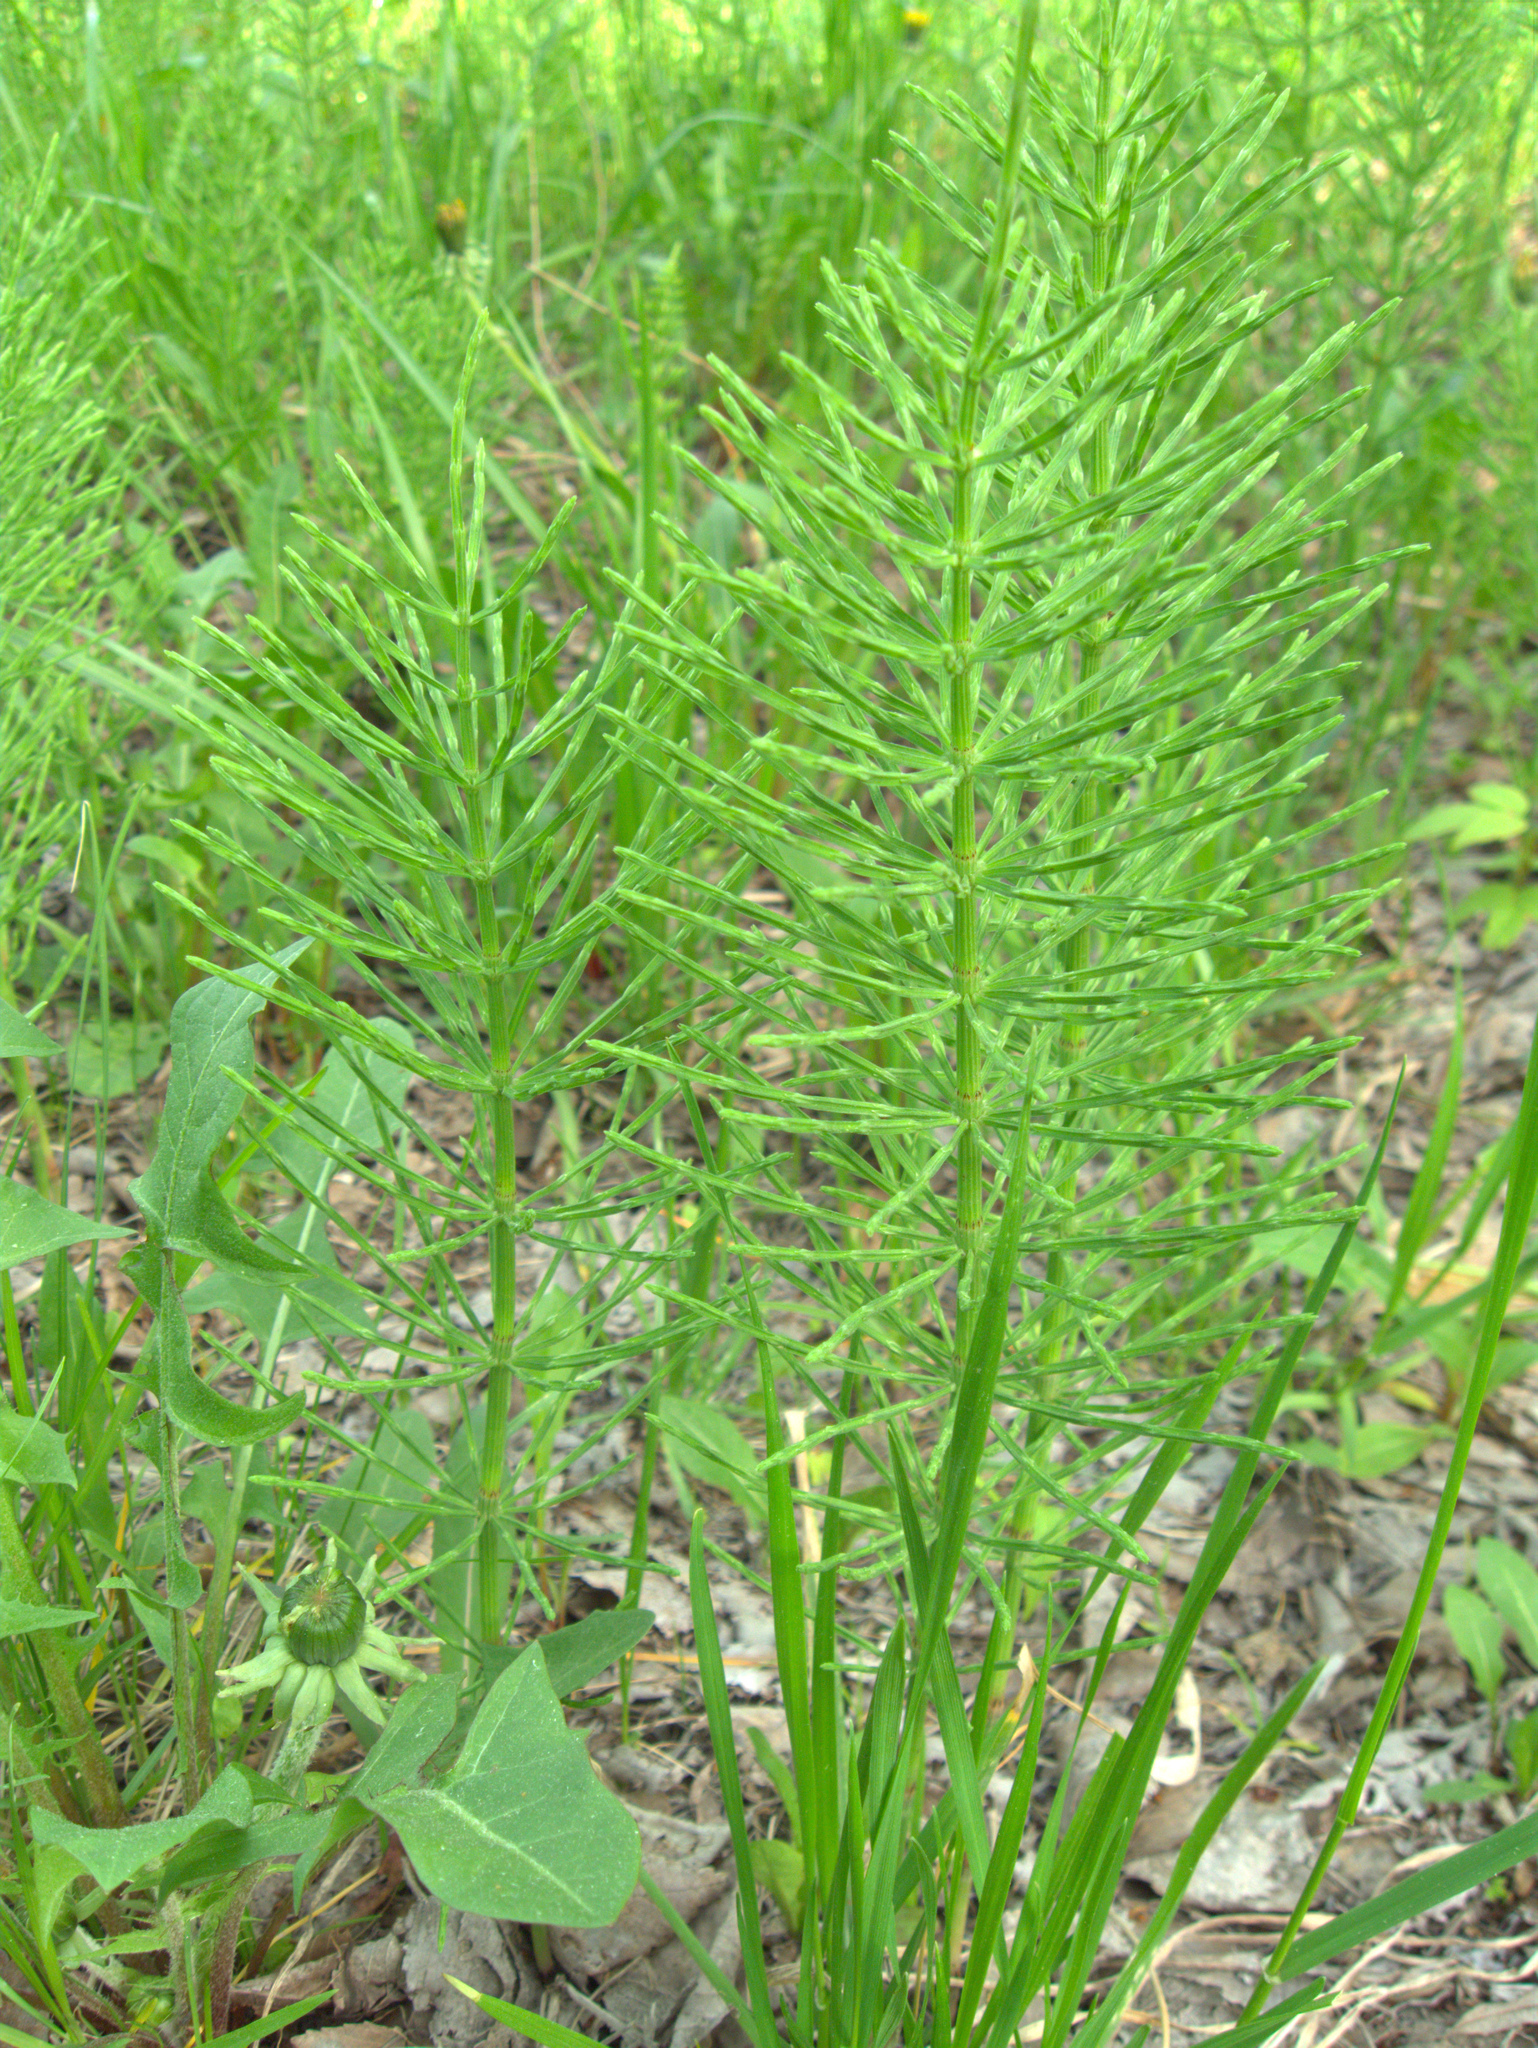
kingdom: Plantae
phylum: Tracheophyta
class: Polypodiopsida
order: Equisetales
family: Equisetaceae
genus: Equisetum
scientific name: Equisetum arvense
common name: Field horsetail
